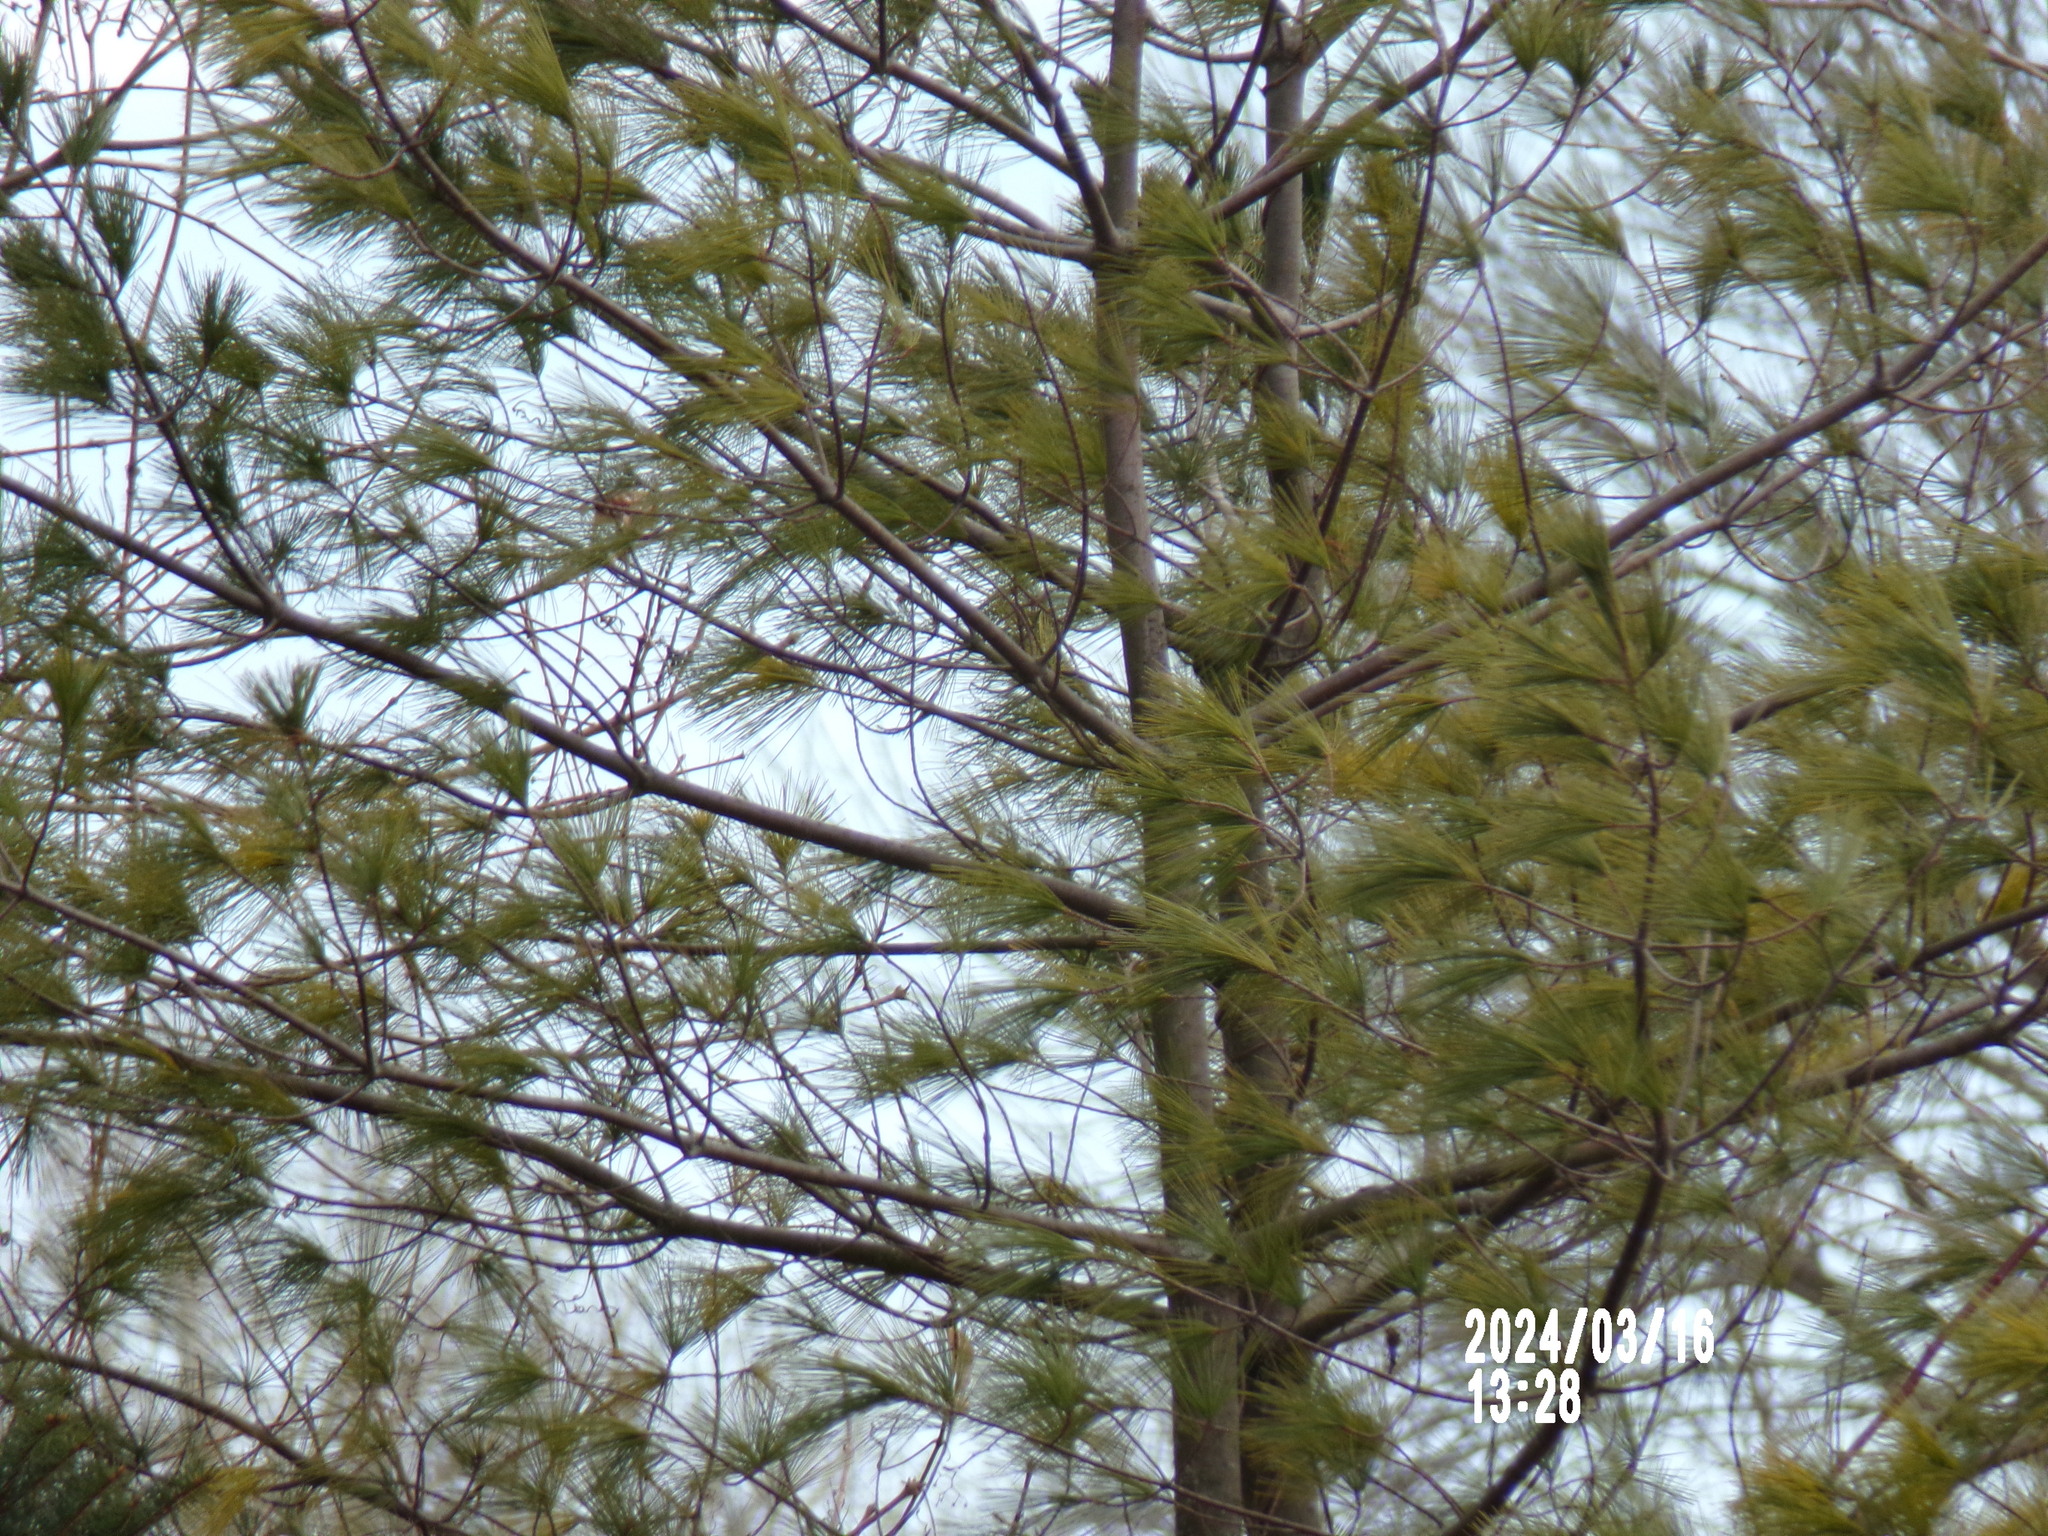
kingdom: Plantae
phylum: Tracheophyta
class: Pinopsida
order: Pinales
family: Pinaceae
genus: Pinus
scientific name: Pinus strobus
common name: Weymouth pine
